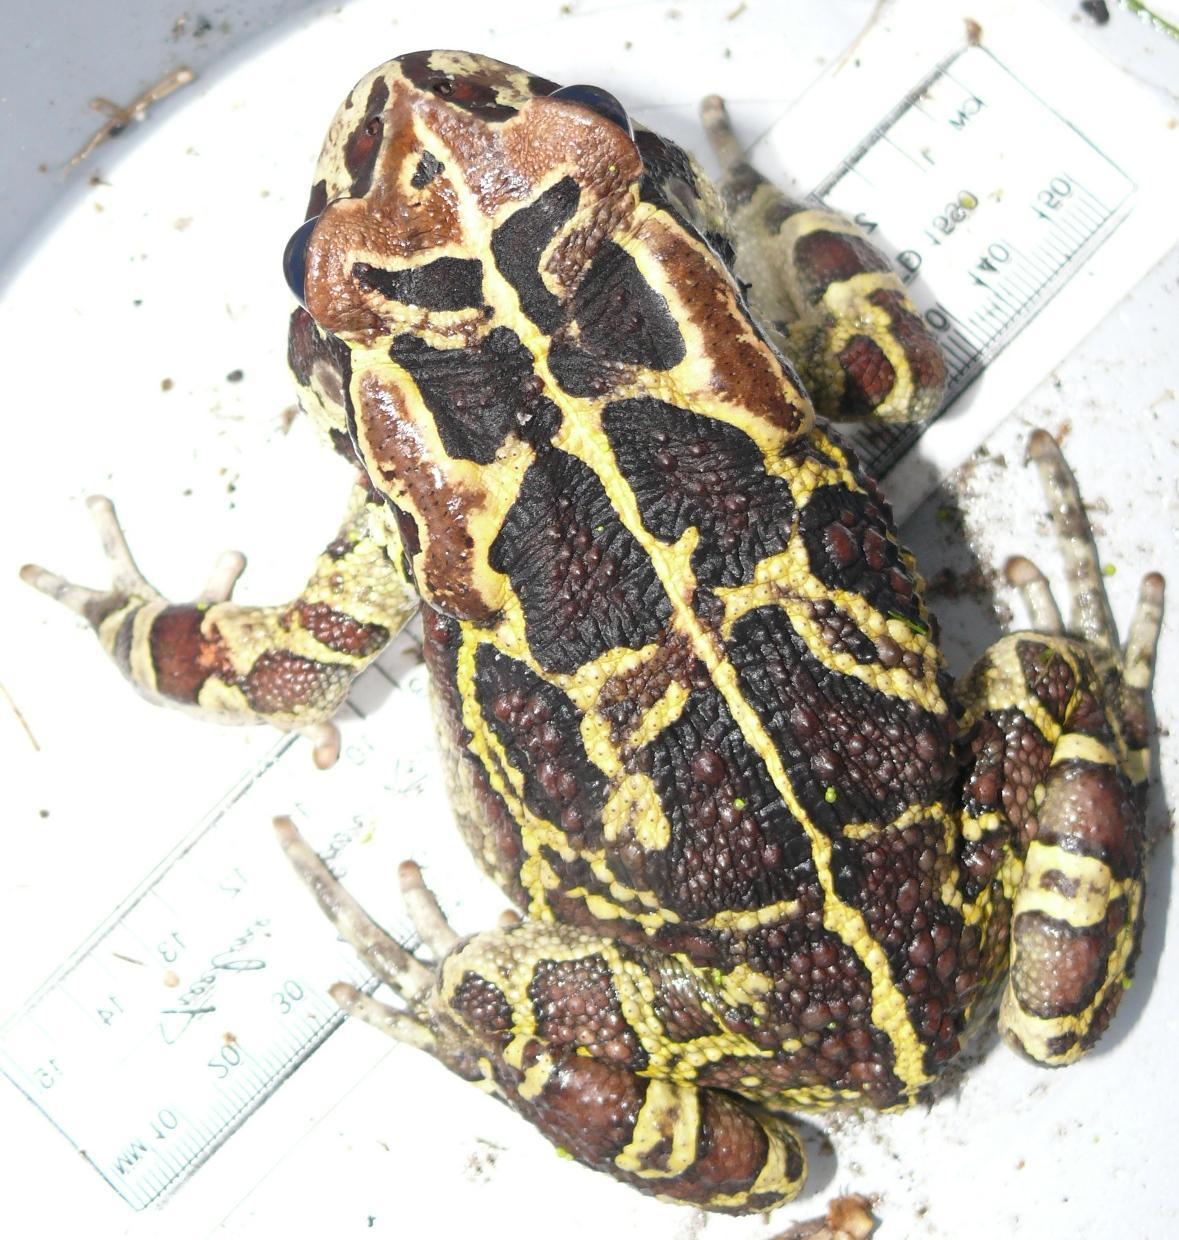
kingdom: Animalia
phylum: Chordata
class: Amphibia
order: Anura
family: Bufonidae
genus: Sclerophrys
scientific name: Sclerophrys pantherina
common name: Panther toad
